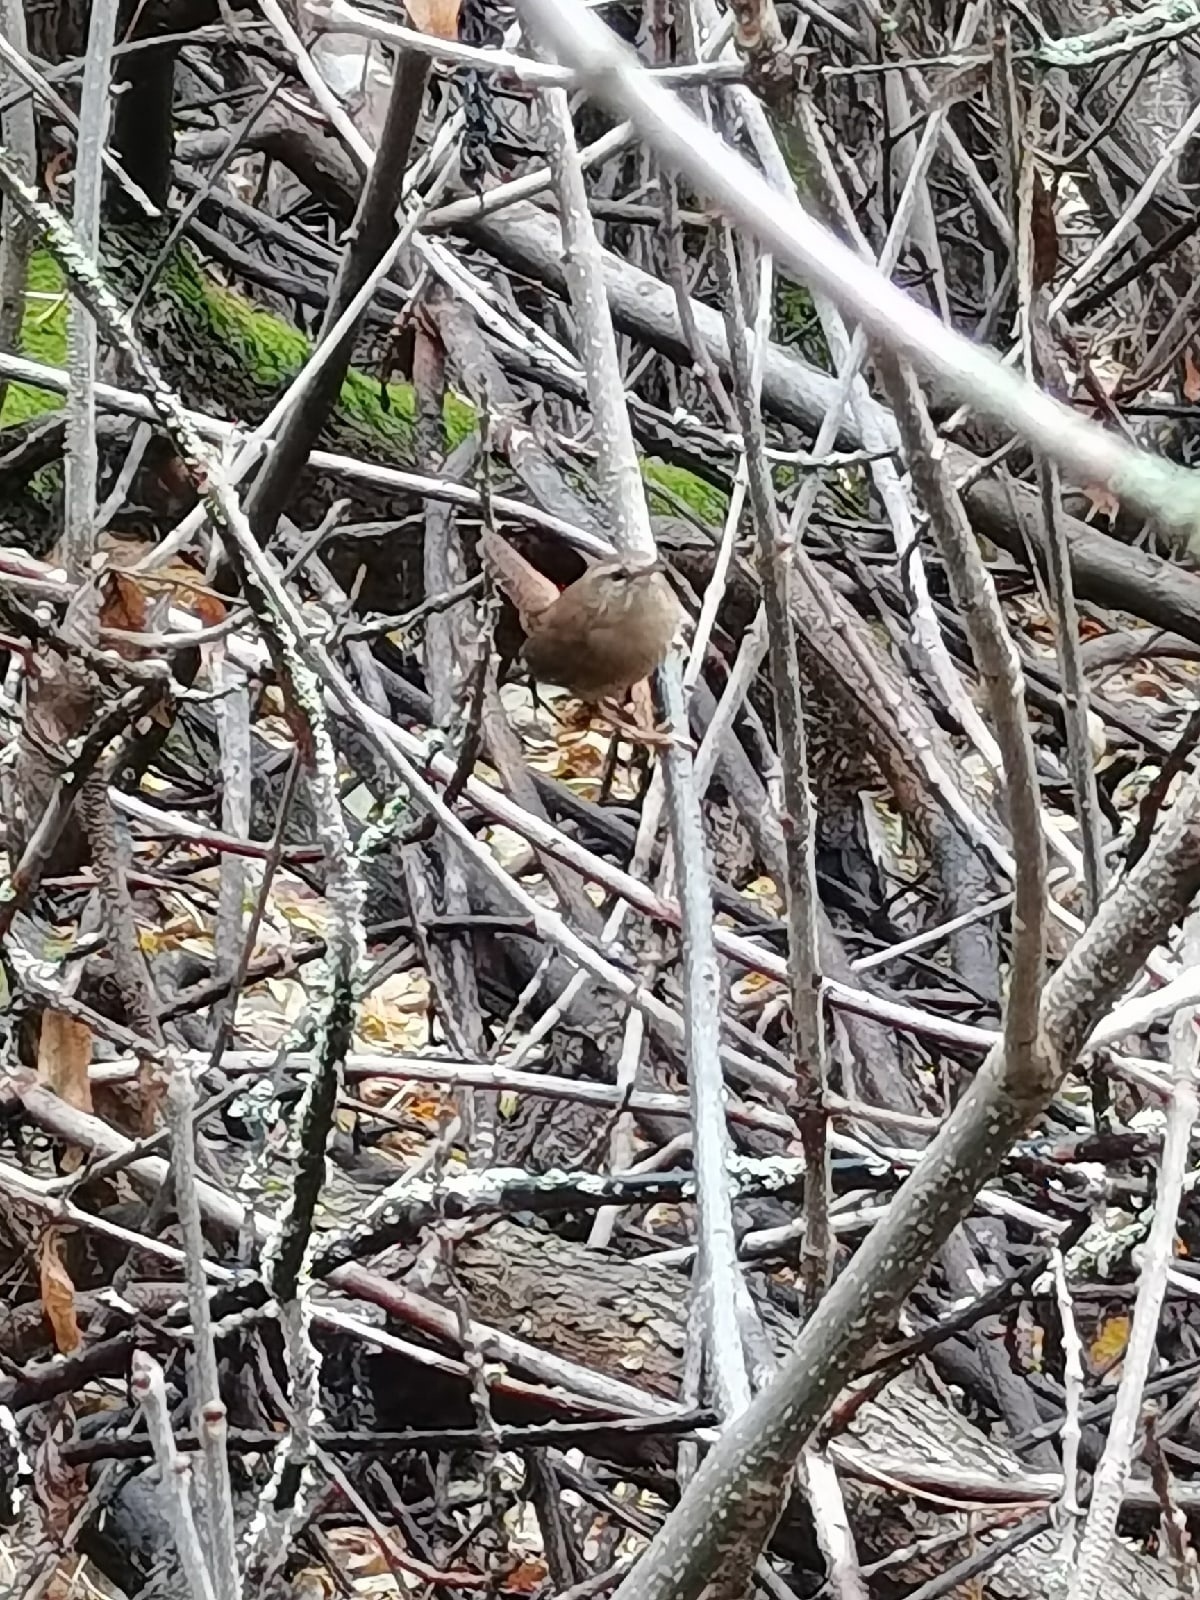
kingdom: Animalia
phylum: Chordata
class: Aves
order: Passeriformes
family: Troglodytidae
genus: Troglodytes
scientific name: Troglodytes troglodytes
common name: Eurasian wren
